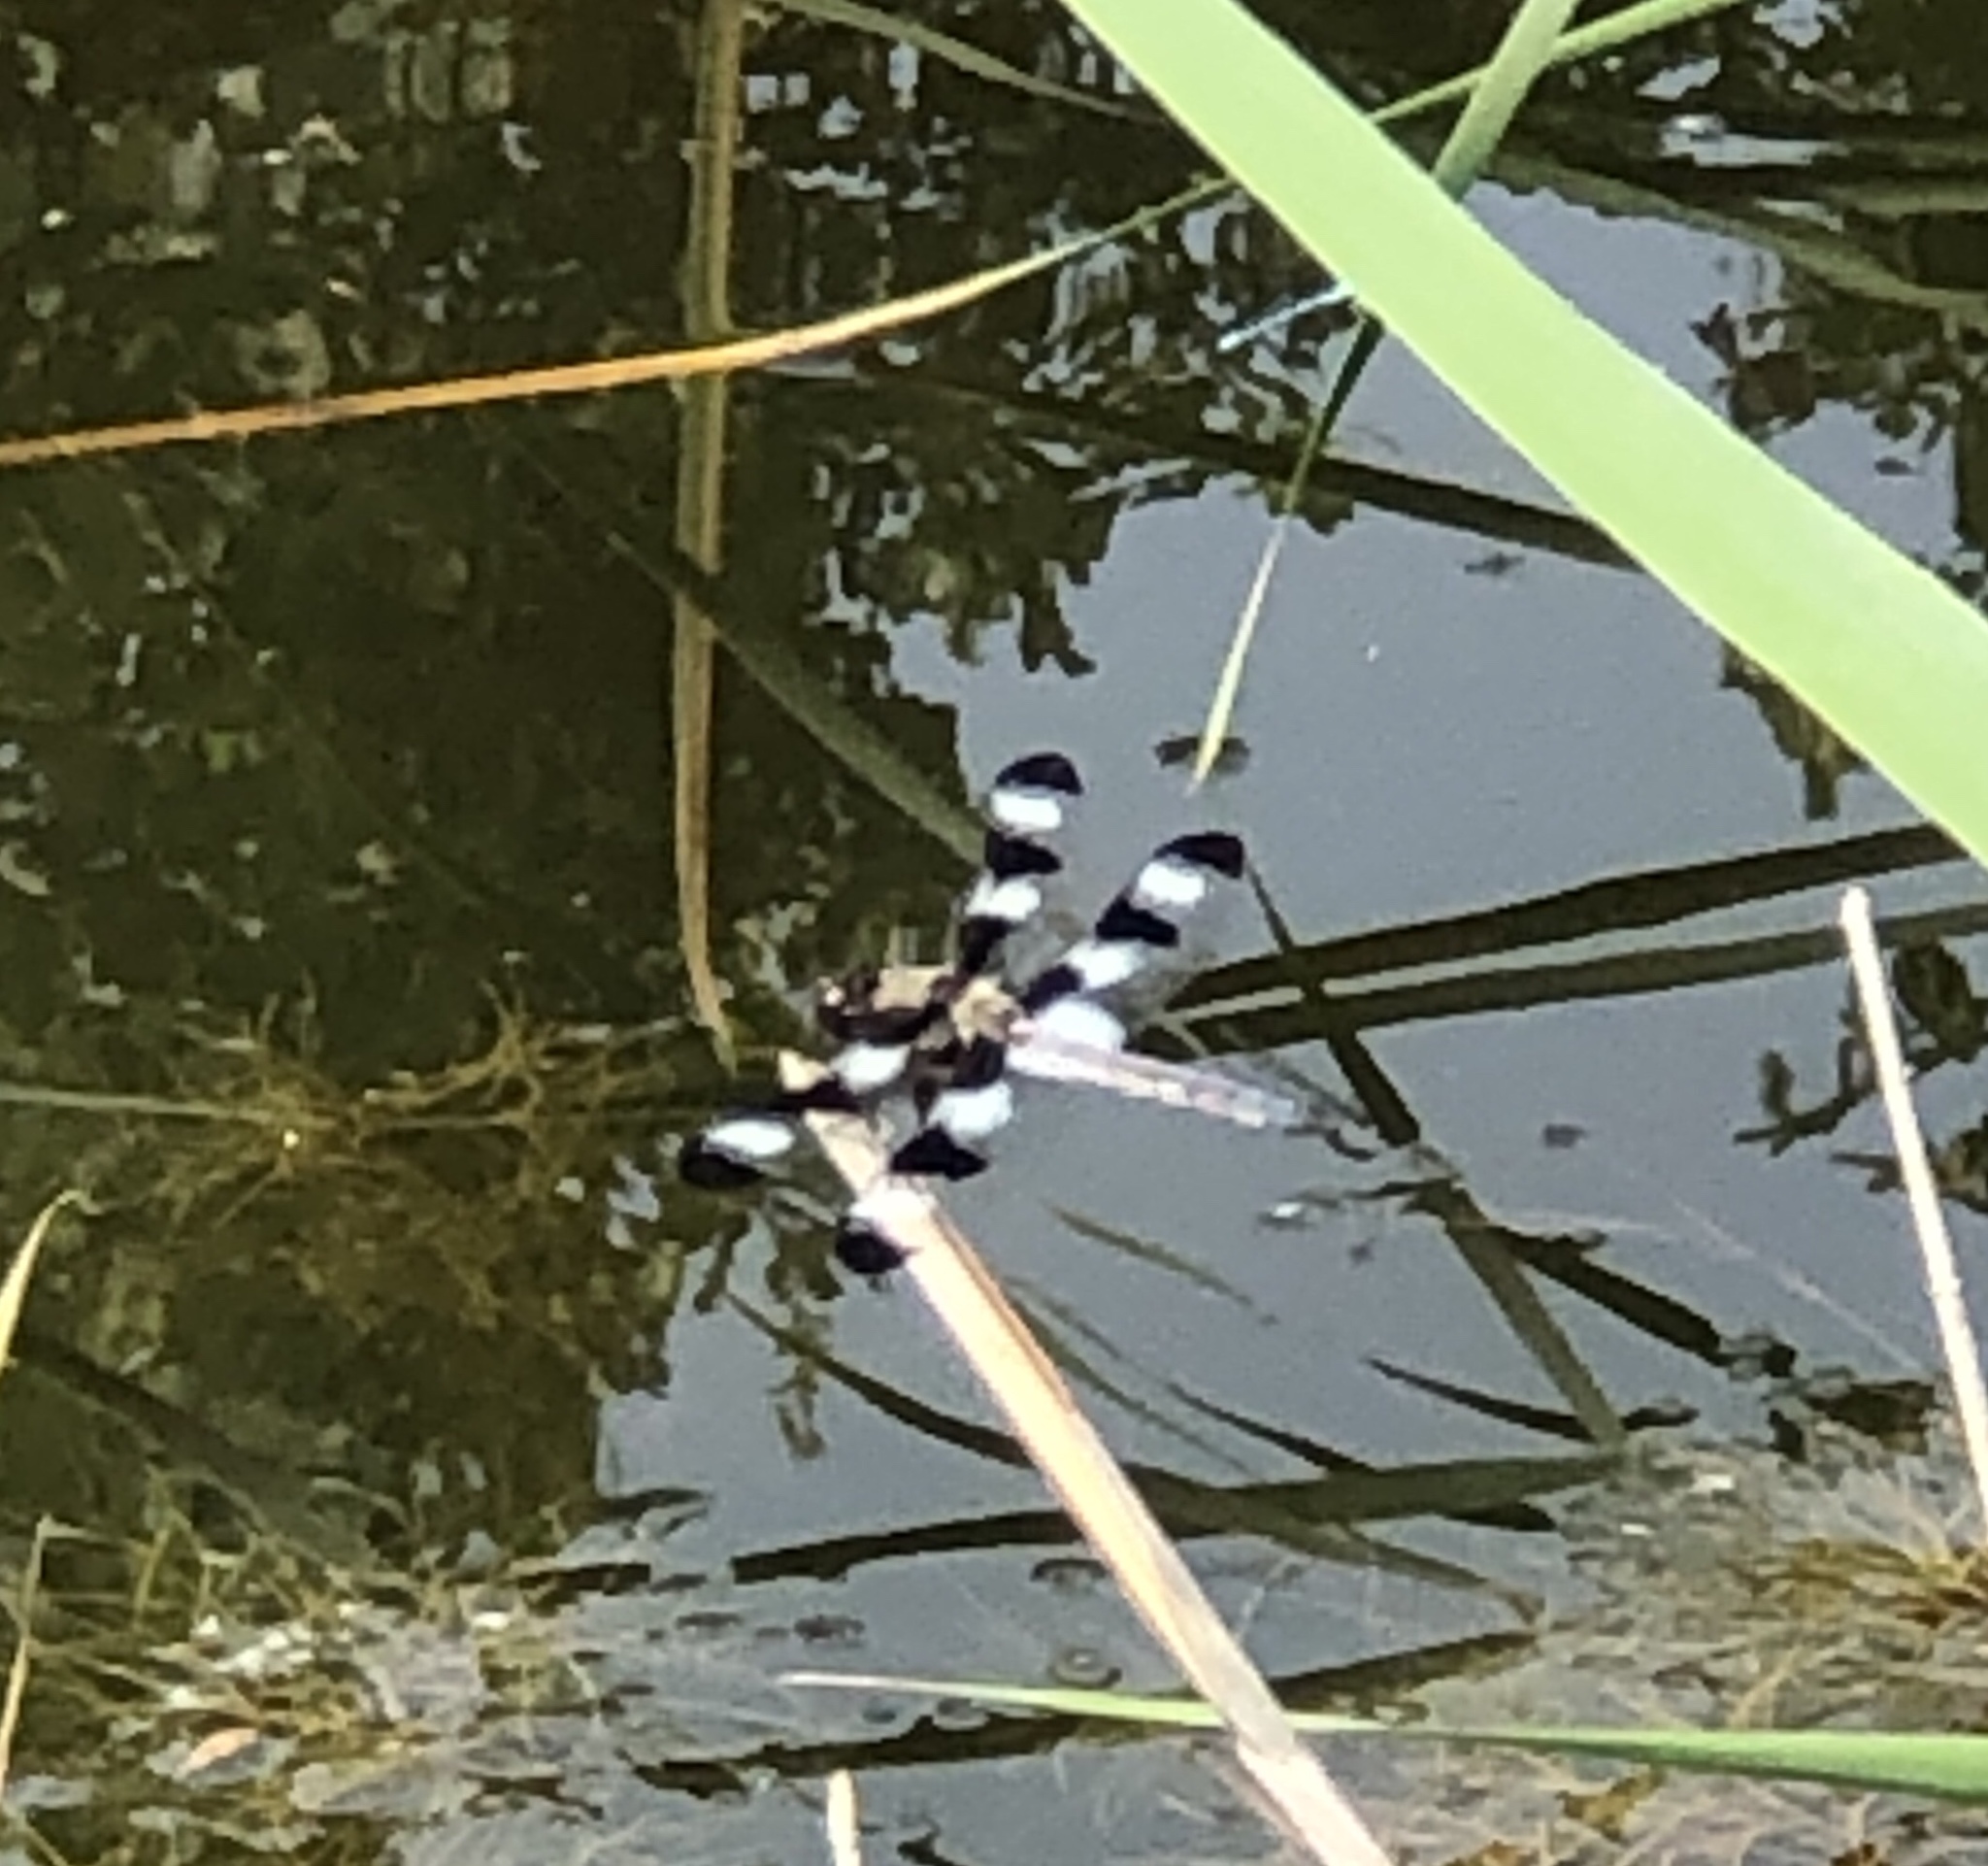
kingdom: Animalia
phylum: Arthropoda
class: Insecta
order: Odonata
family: Libellulidae
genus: Libellula
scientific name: Libellula pulchella
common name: Twelve-spotted skimmer
